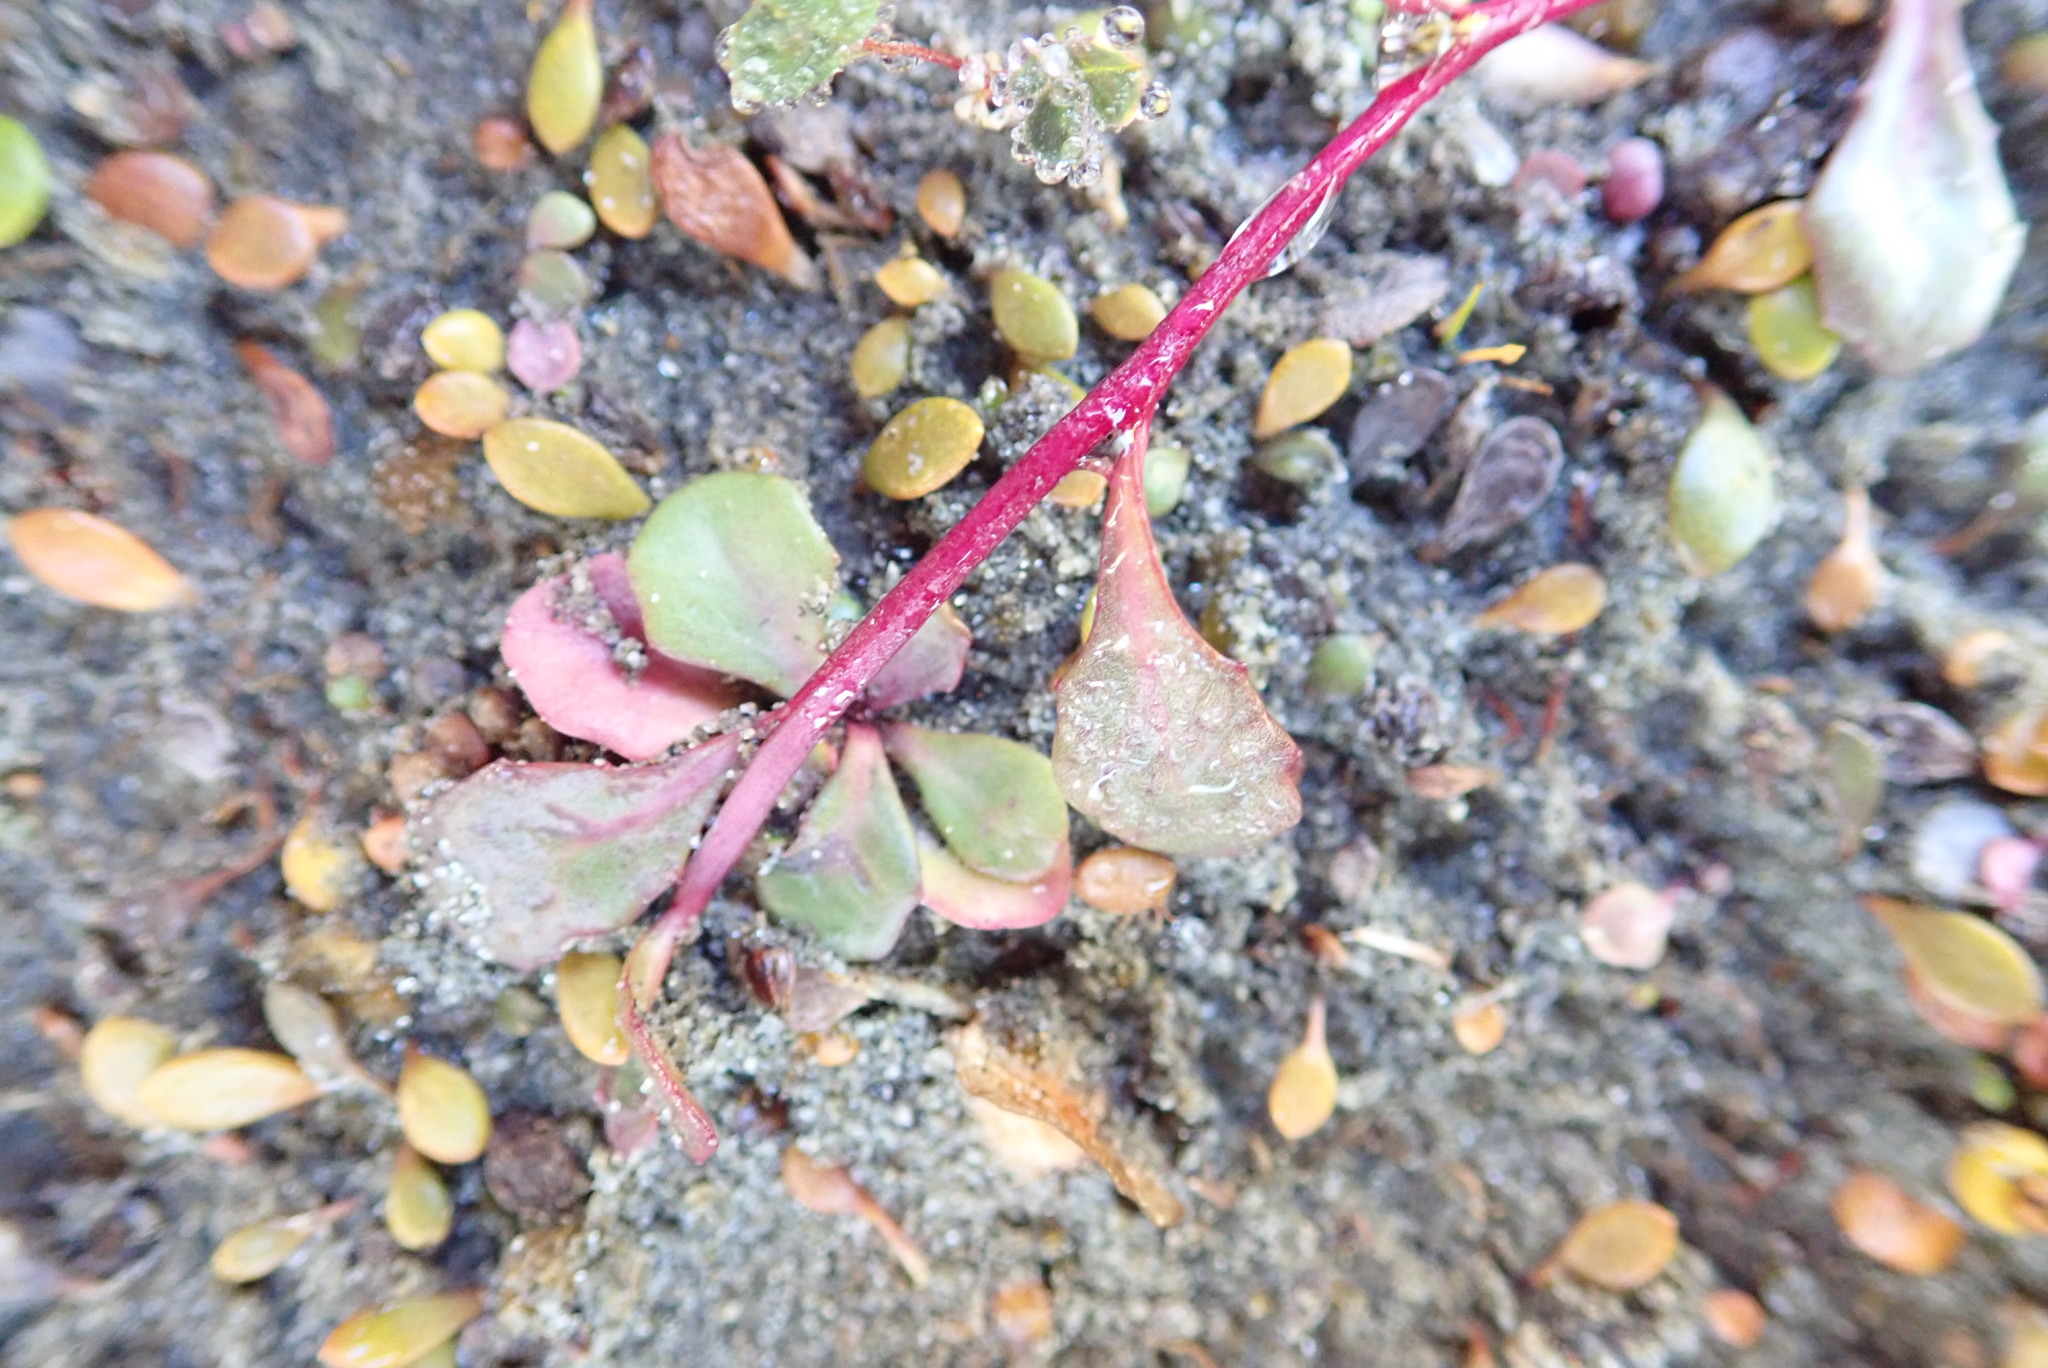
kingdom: Plantae
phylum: Tracheophyta
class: Magnoliopsida
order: Asterales
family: Campanulaceae
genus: Lobelia
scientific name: Lobelia anceps
